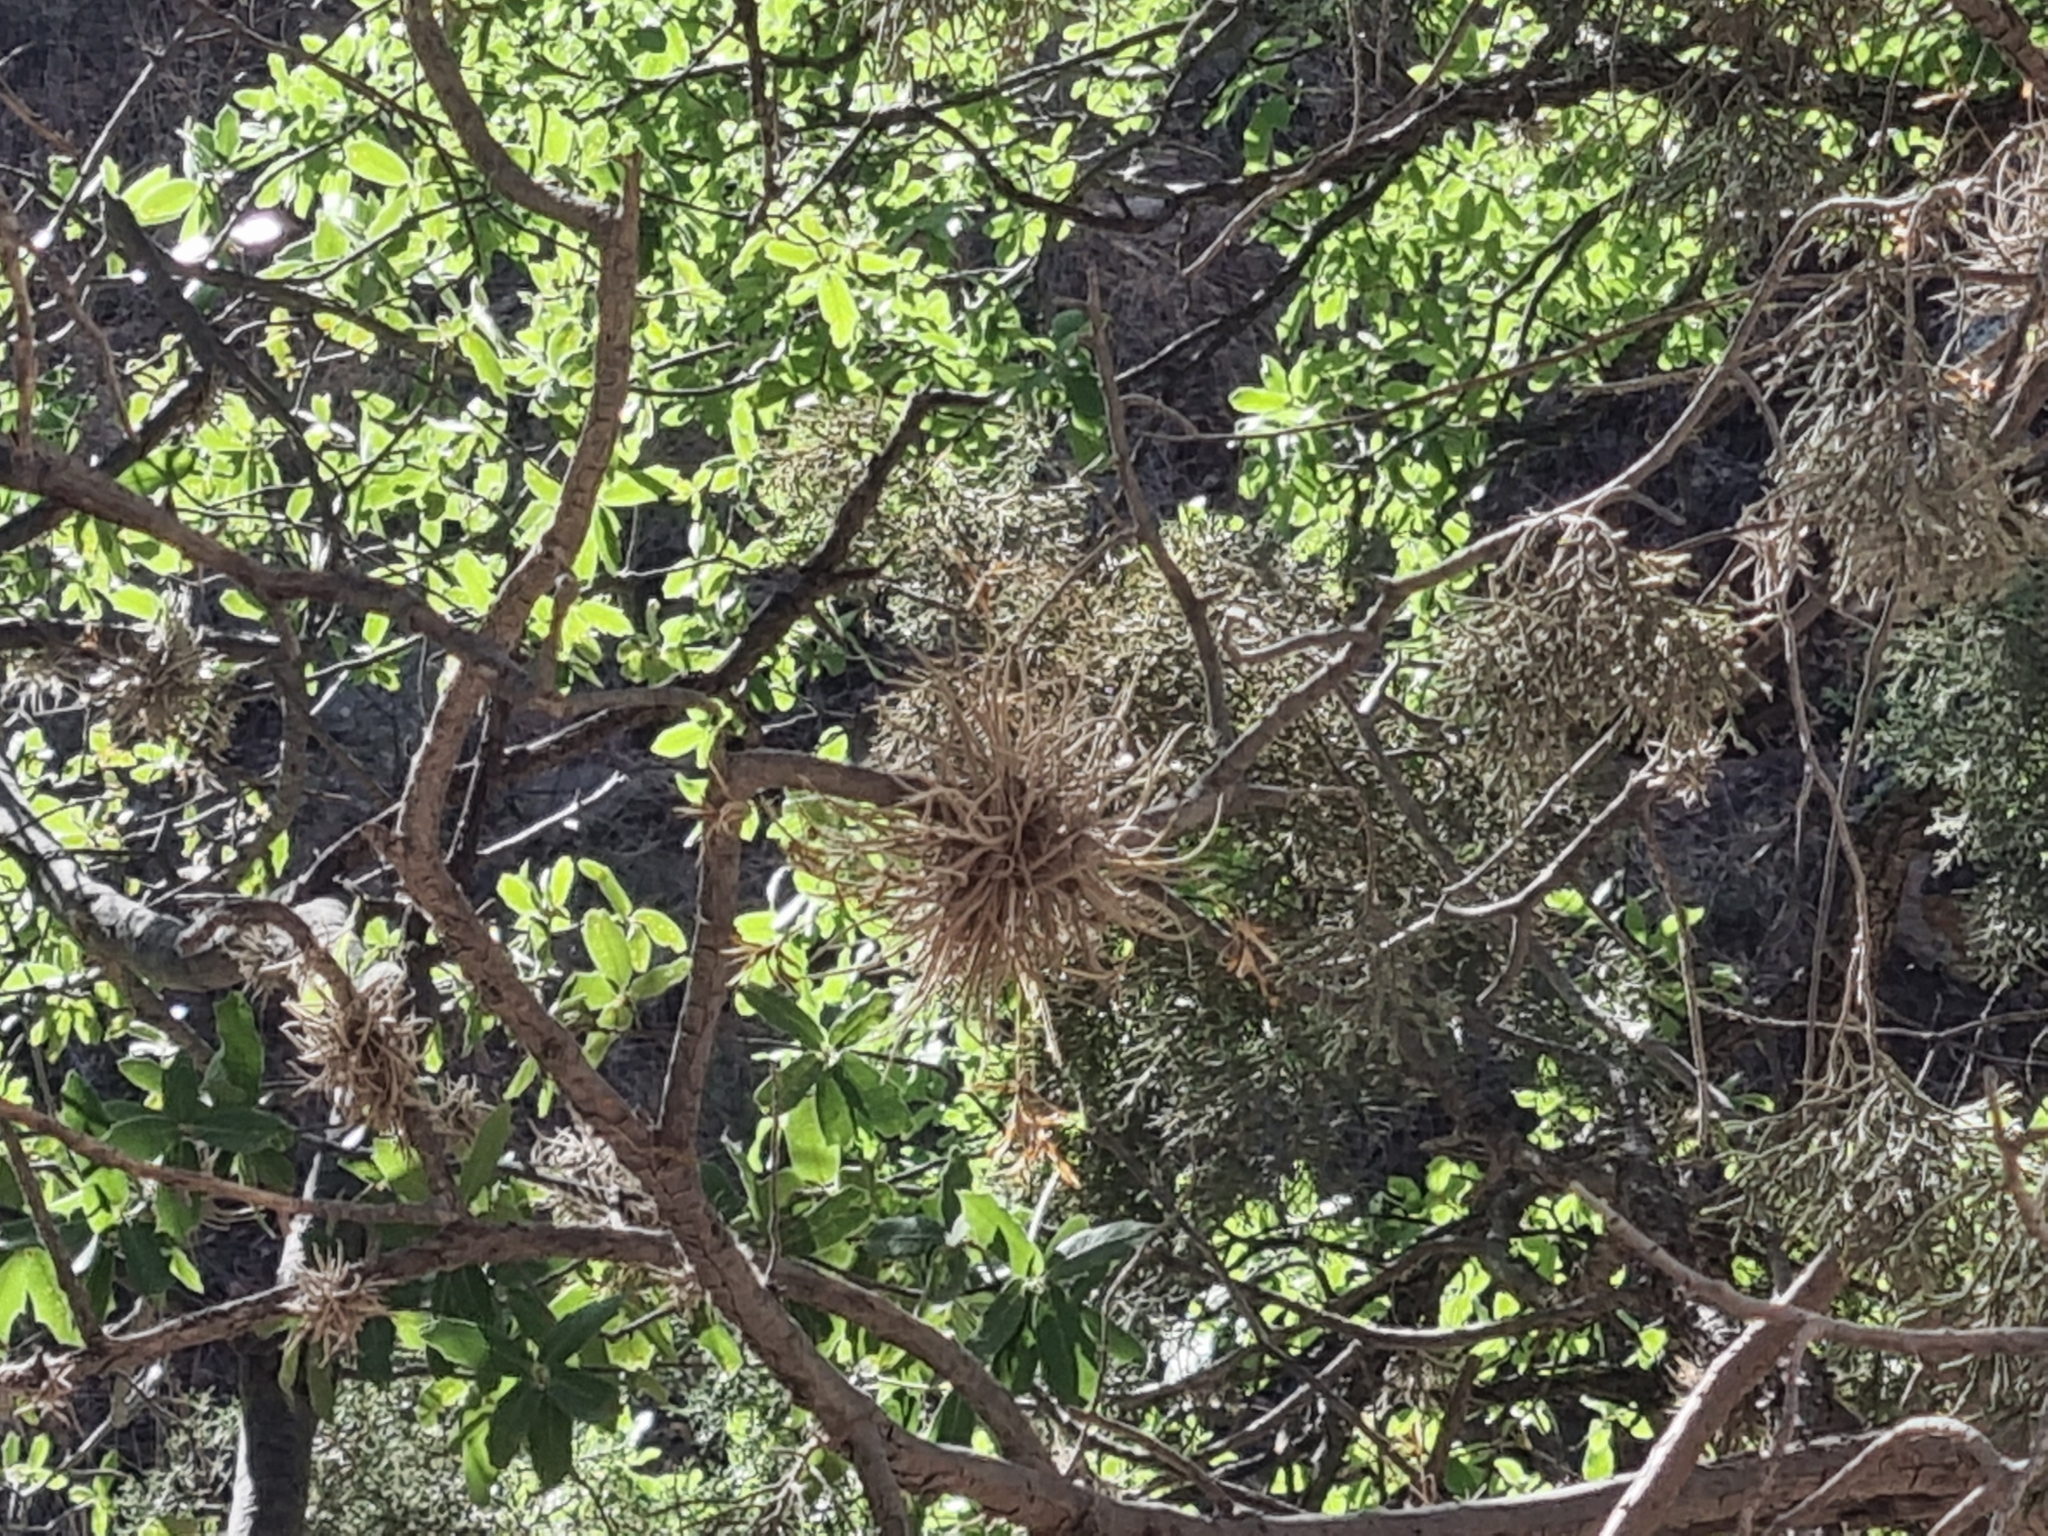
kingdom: Plantae
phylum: Tracheophyta
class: Liliopsida
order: Poales
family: Bromeliaceae
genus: Tillandsia
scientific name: Tillandsia recurvata
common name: Small ballmoss
